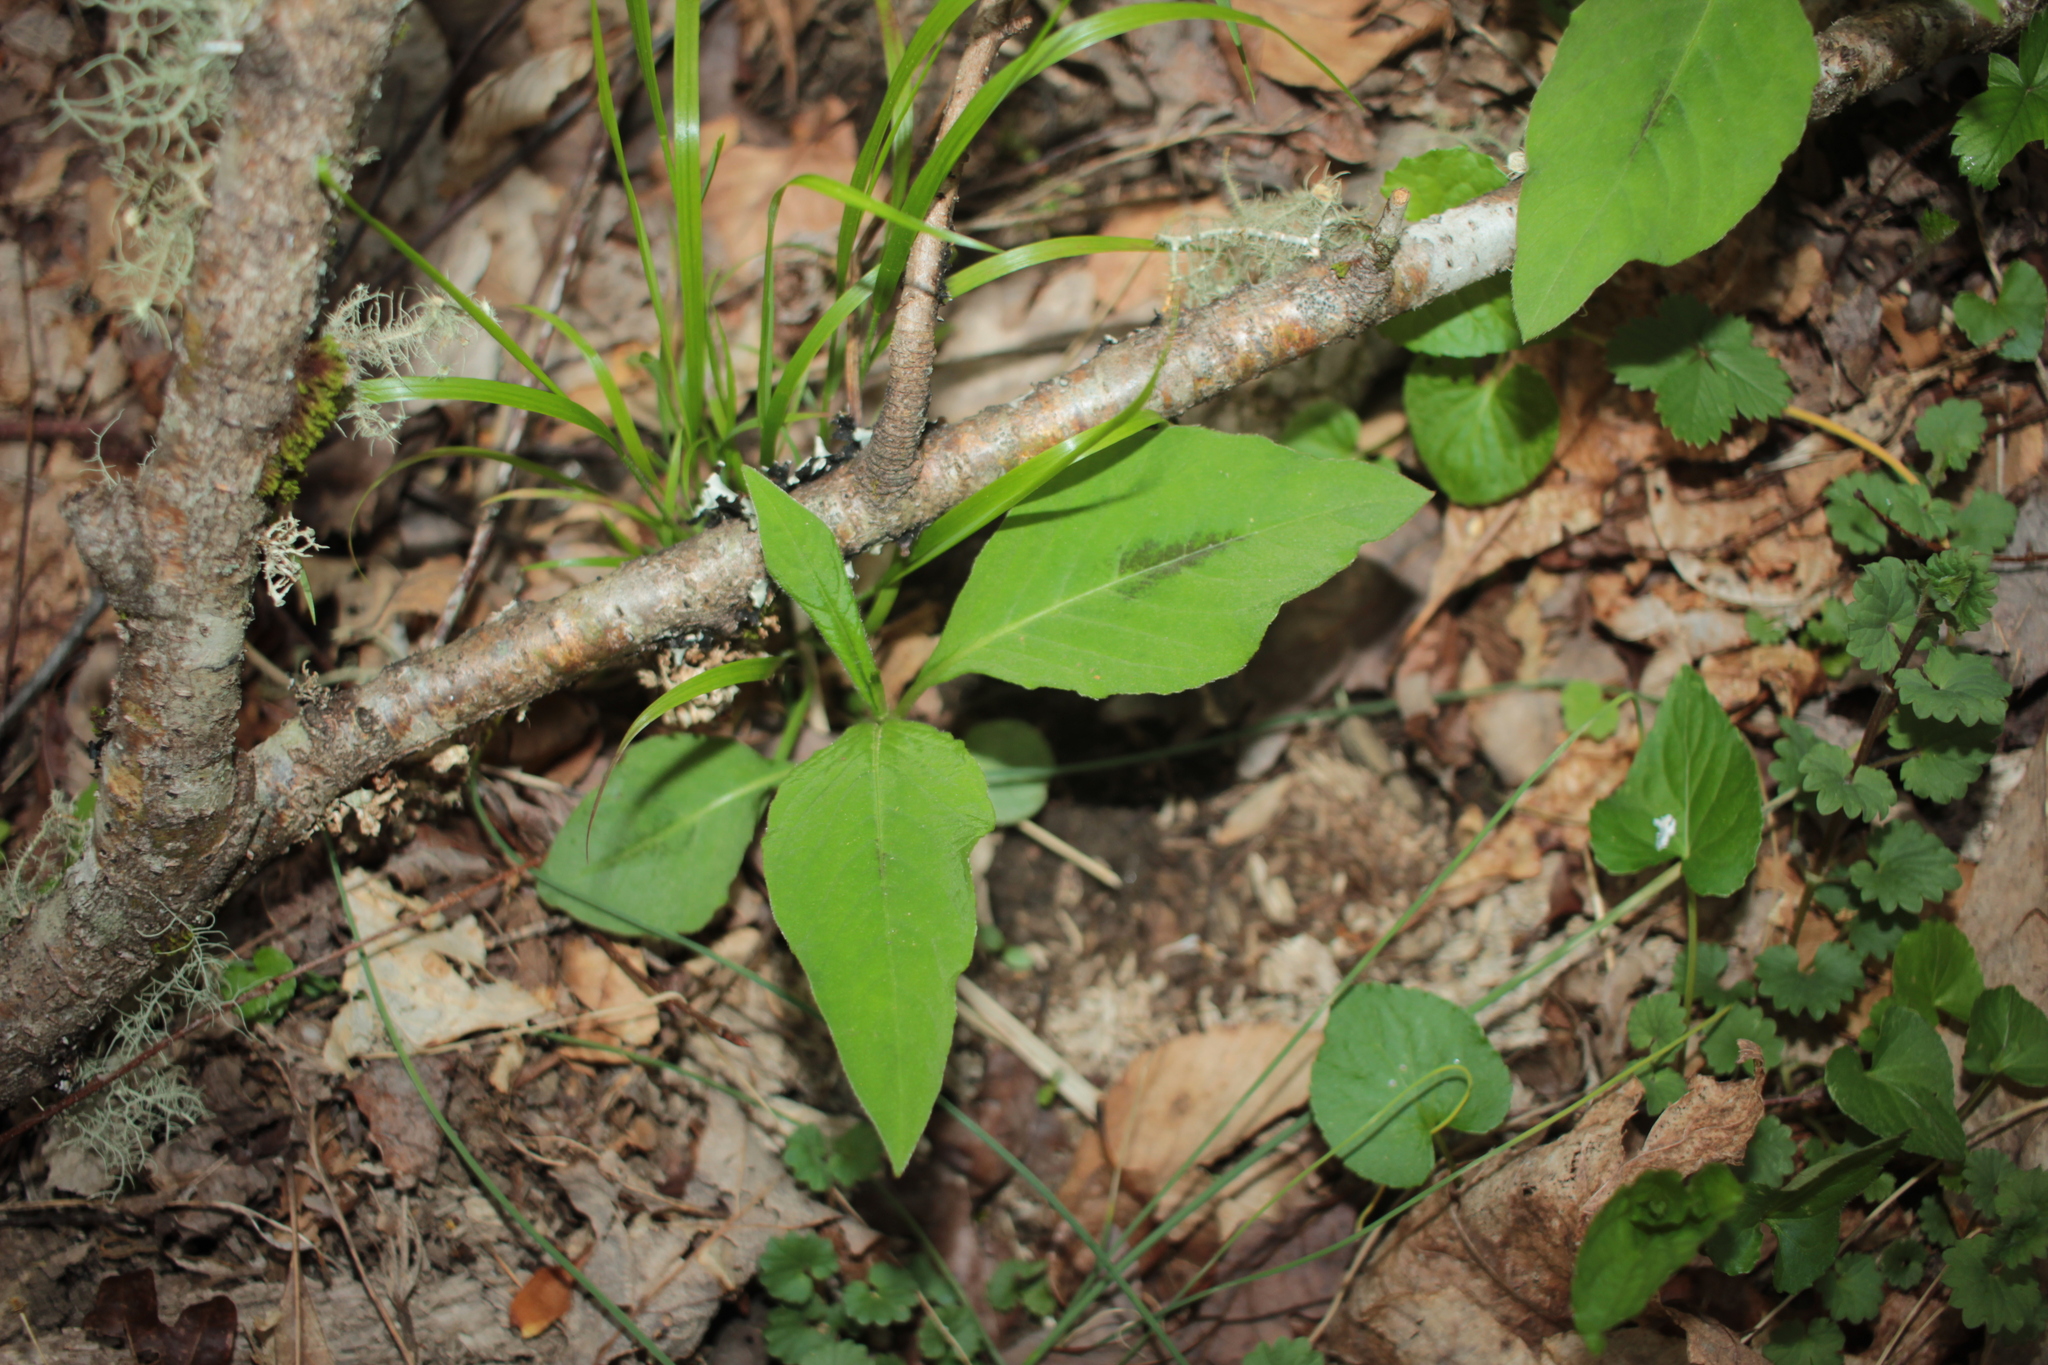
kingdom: Plantae
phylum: Tracheophyta
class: Magnoliopsida
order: Caryophyllales
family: Polygonaceae
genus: Persicaria
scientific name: Persicaria virginiana
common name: Jumpseed
